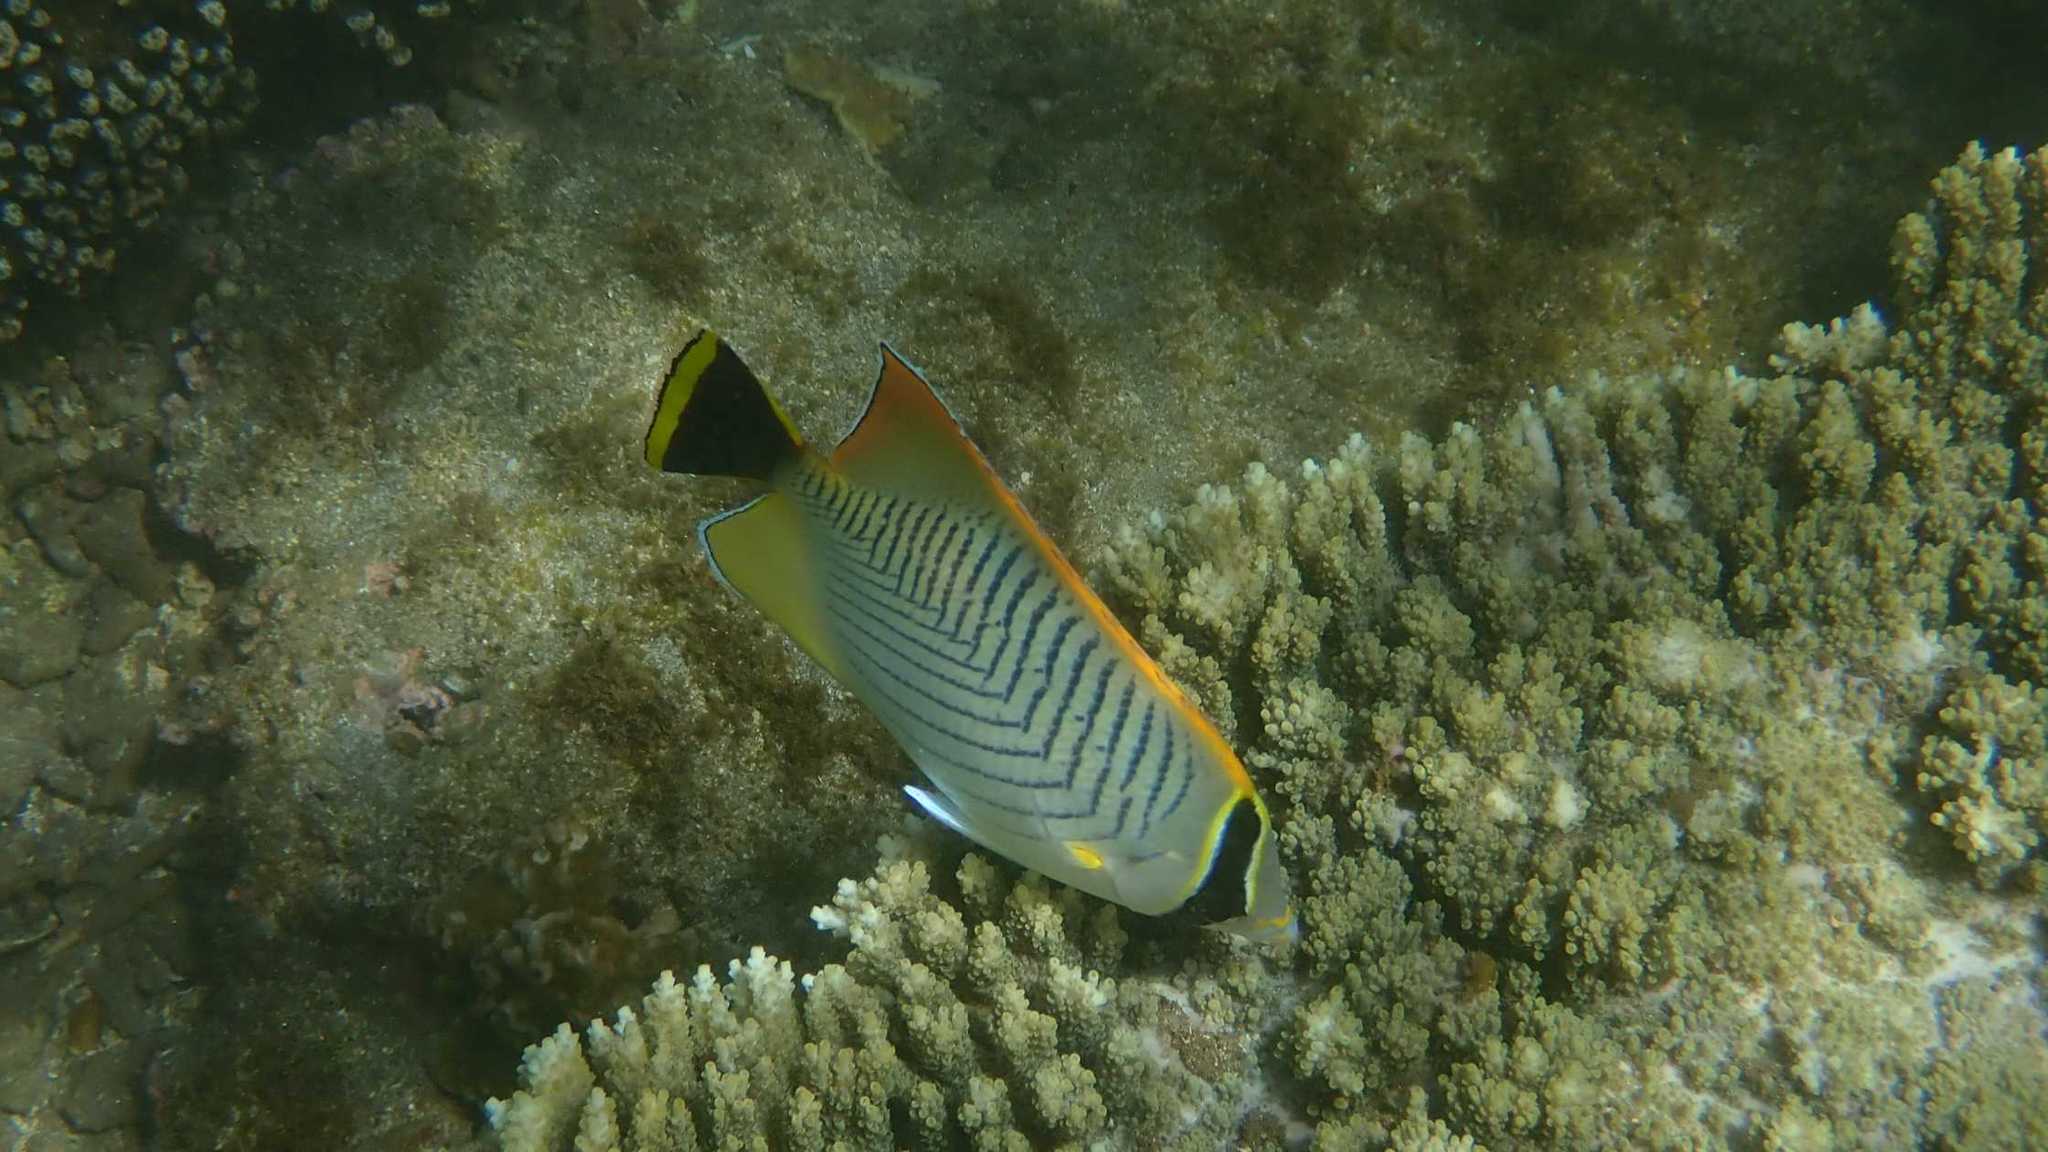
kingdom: Animalia
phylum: Chordata
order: Perciformes
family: Chaetodontidae
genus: Chaetodon
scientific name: Chaetodon trifascialis
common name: Chevroned butterflyfish
